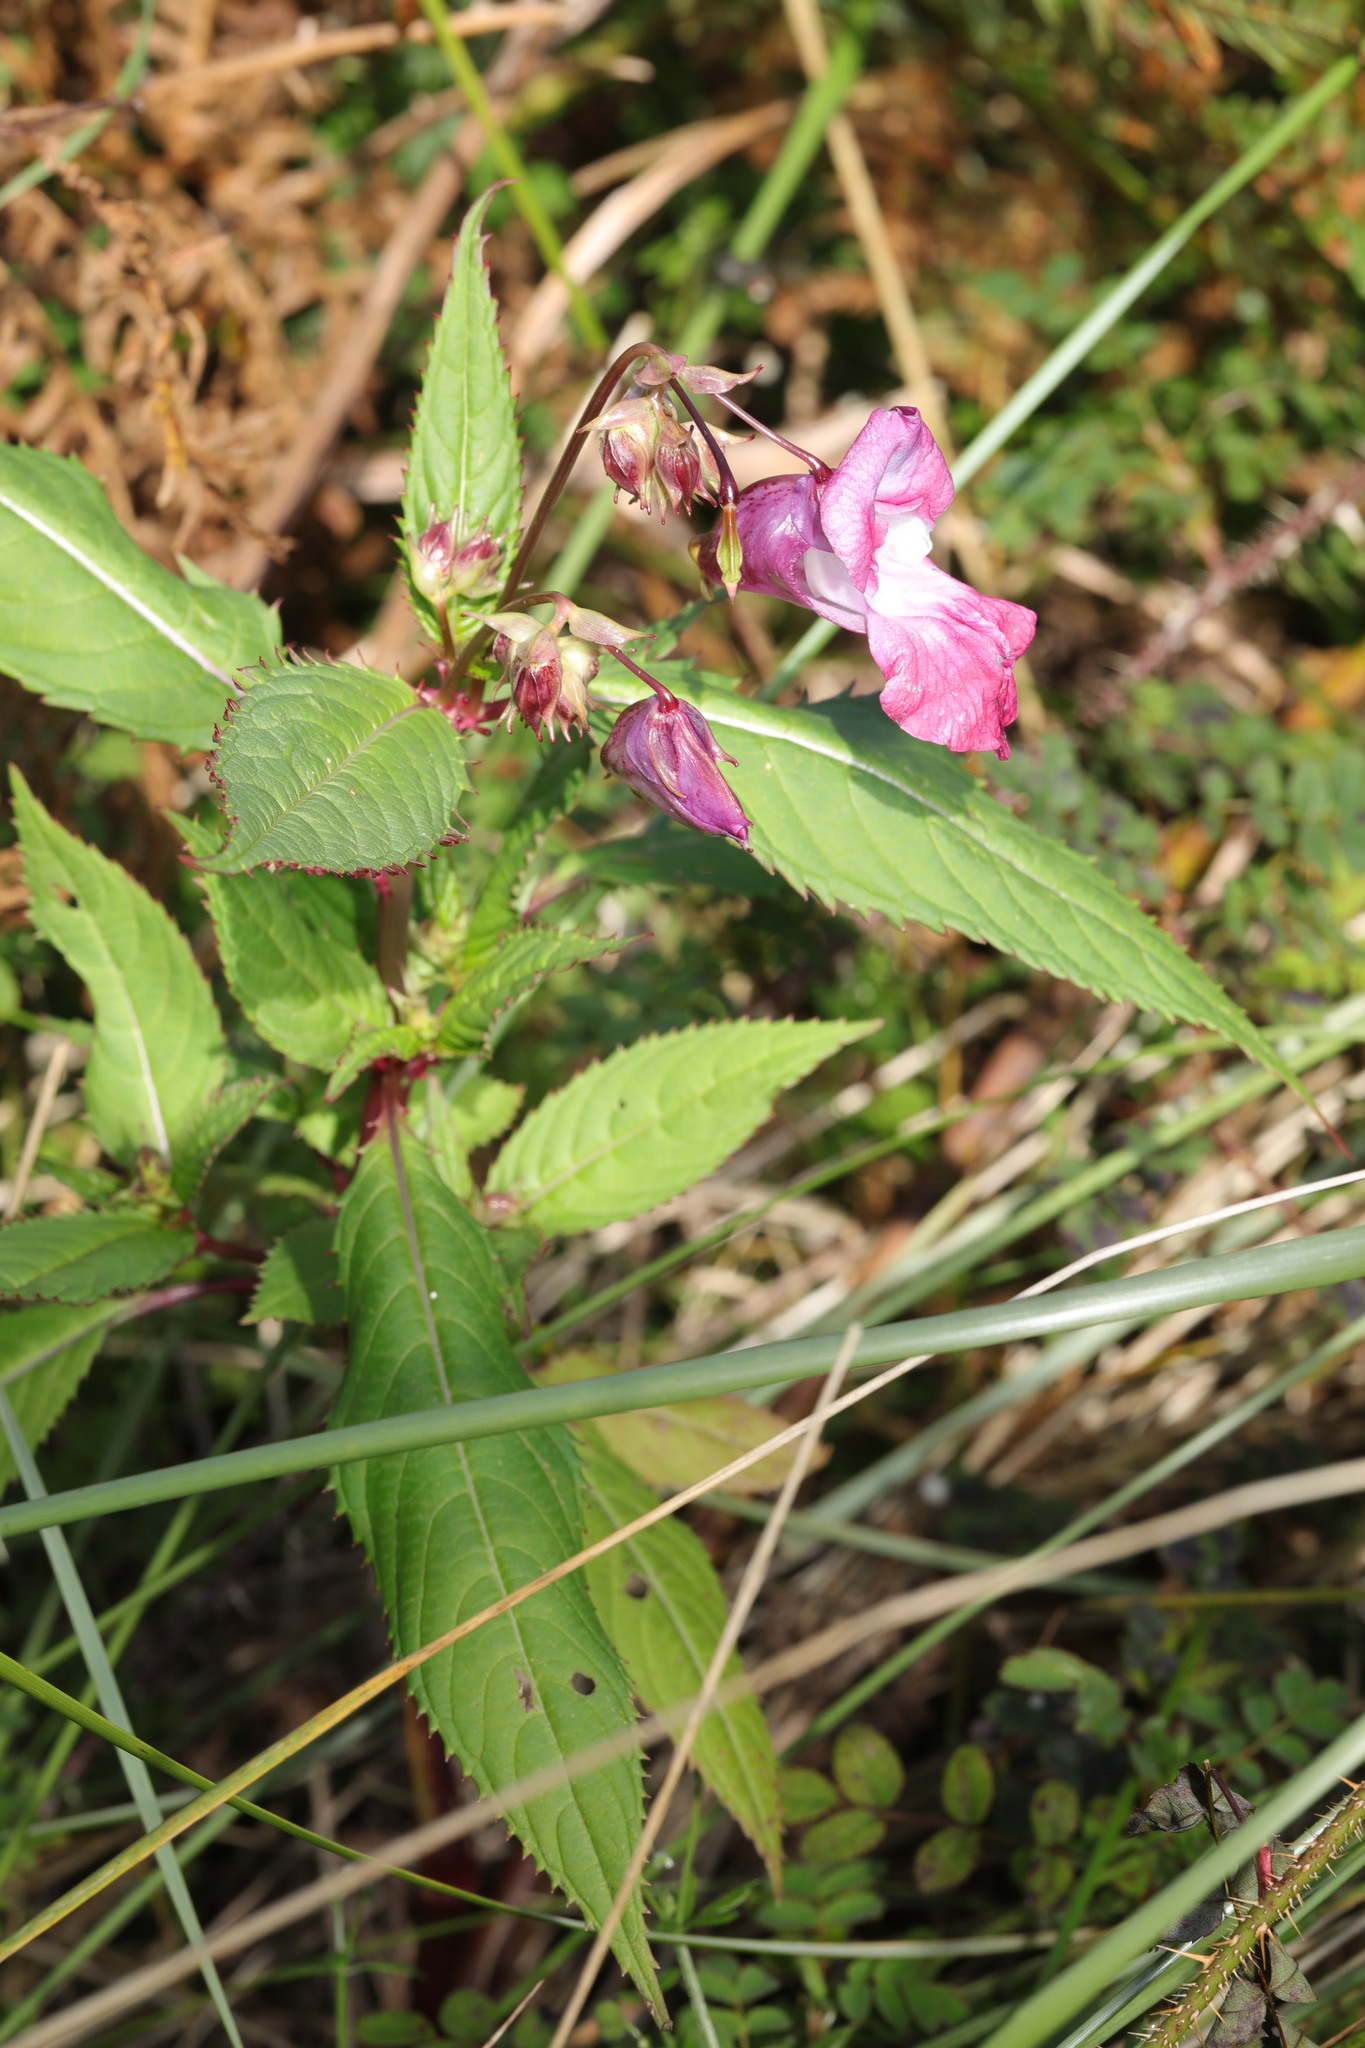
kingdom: Plantae
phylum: Tracheophyta
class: Magnoliopsida
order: Ericales
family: Balsaminaceae
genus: Impatiens
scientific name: Impatiens glandulifera
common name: Himalayan balsam
